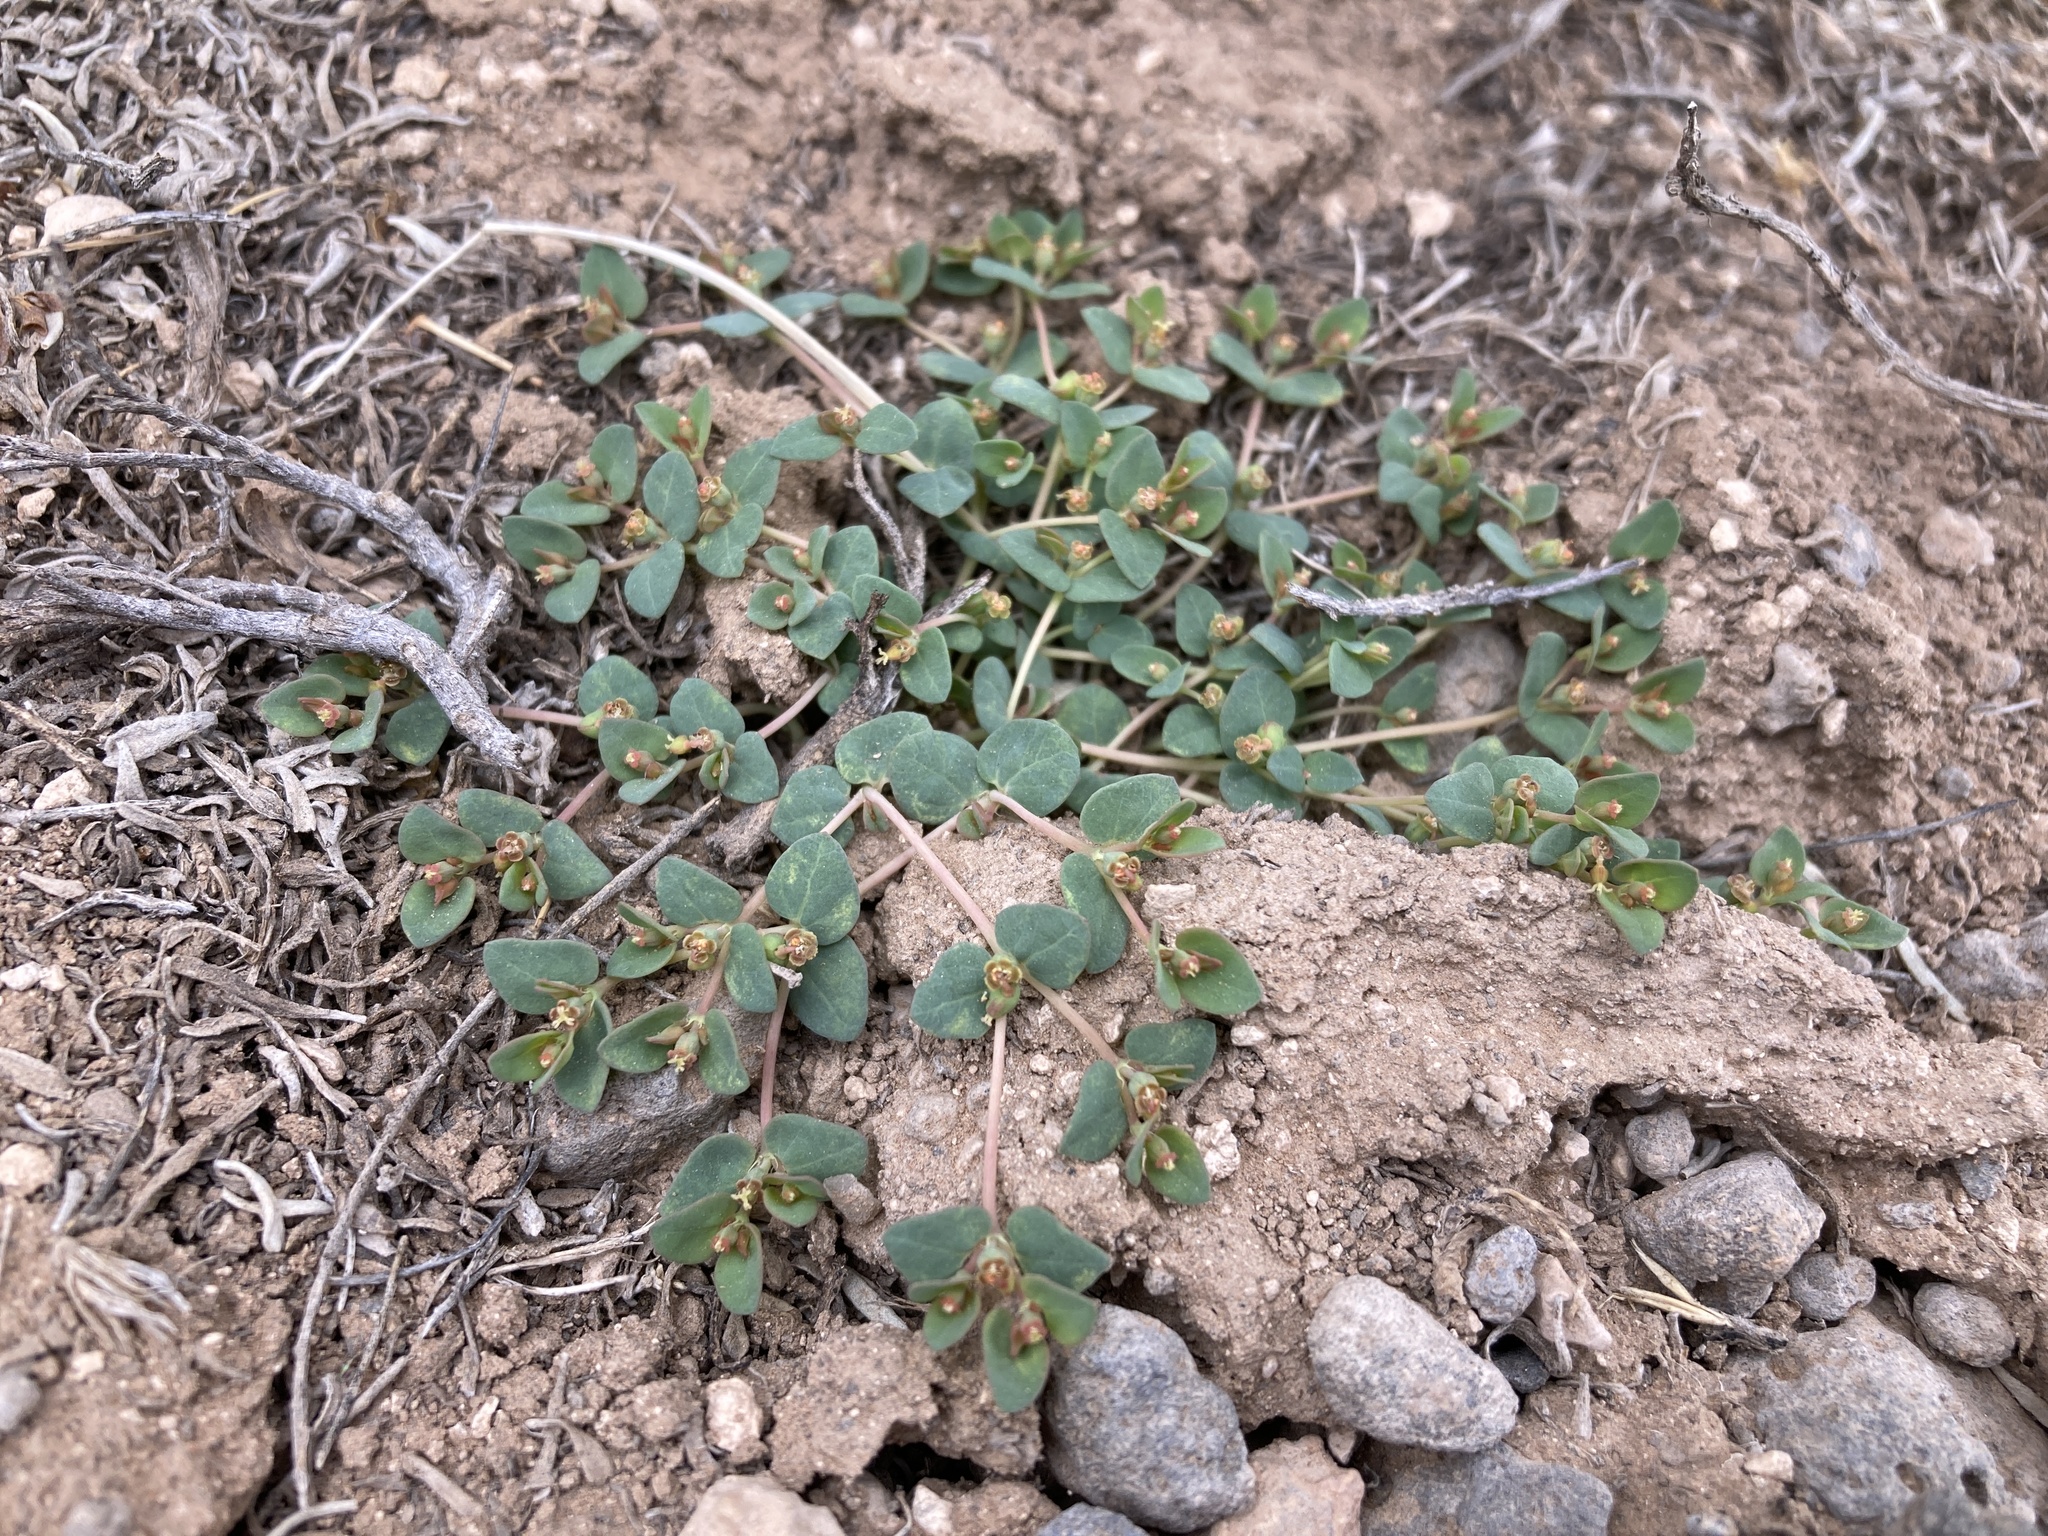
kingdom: Plantae
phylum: Tracheophyta
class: Magnoliopsida
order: Malpighiales
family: Euphorbiaceae
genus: Euphorbia
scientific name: Euphorbia fendleri
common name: Fendler's euphorbia
